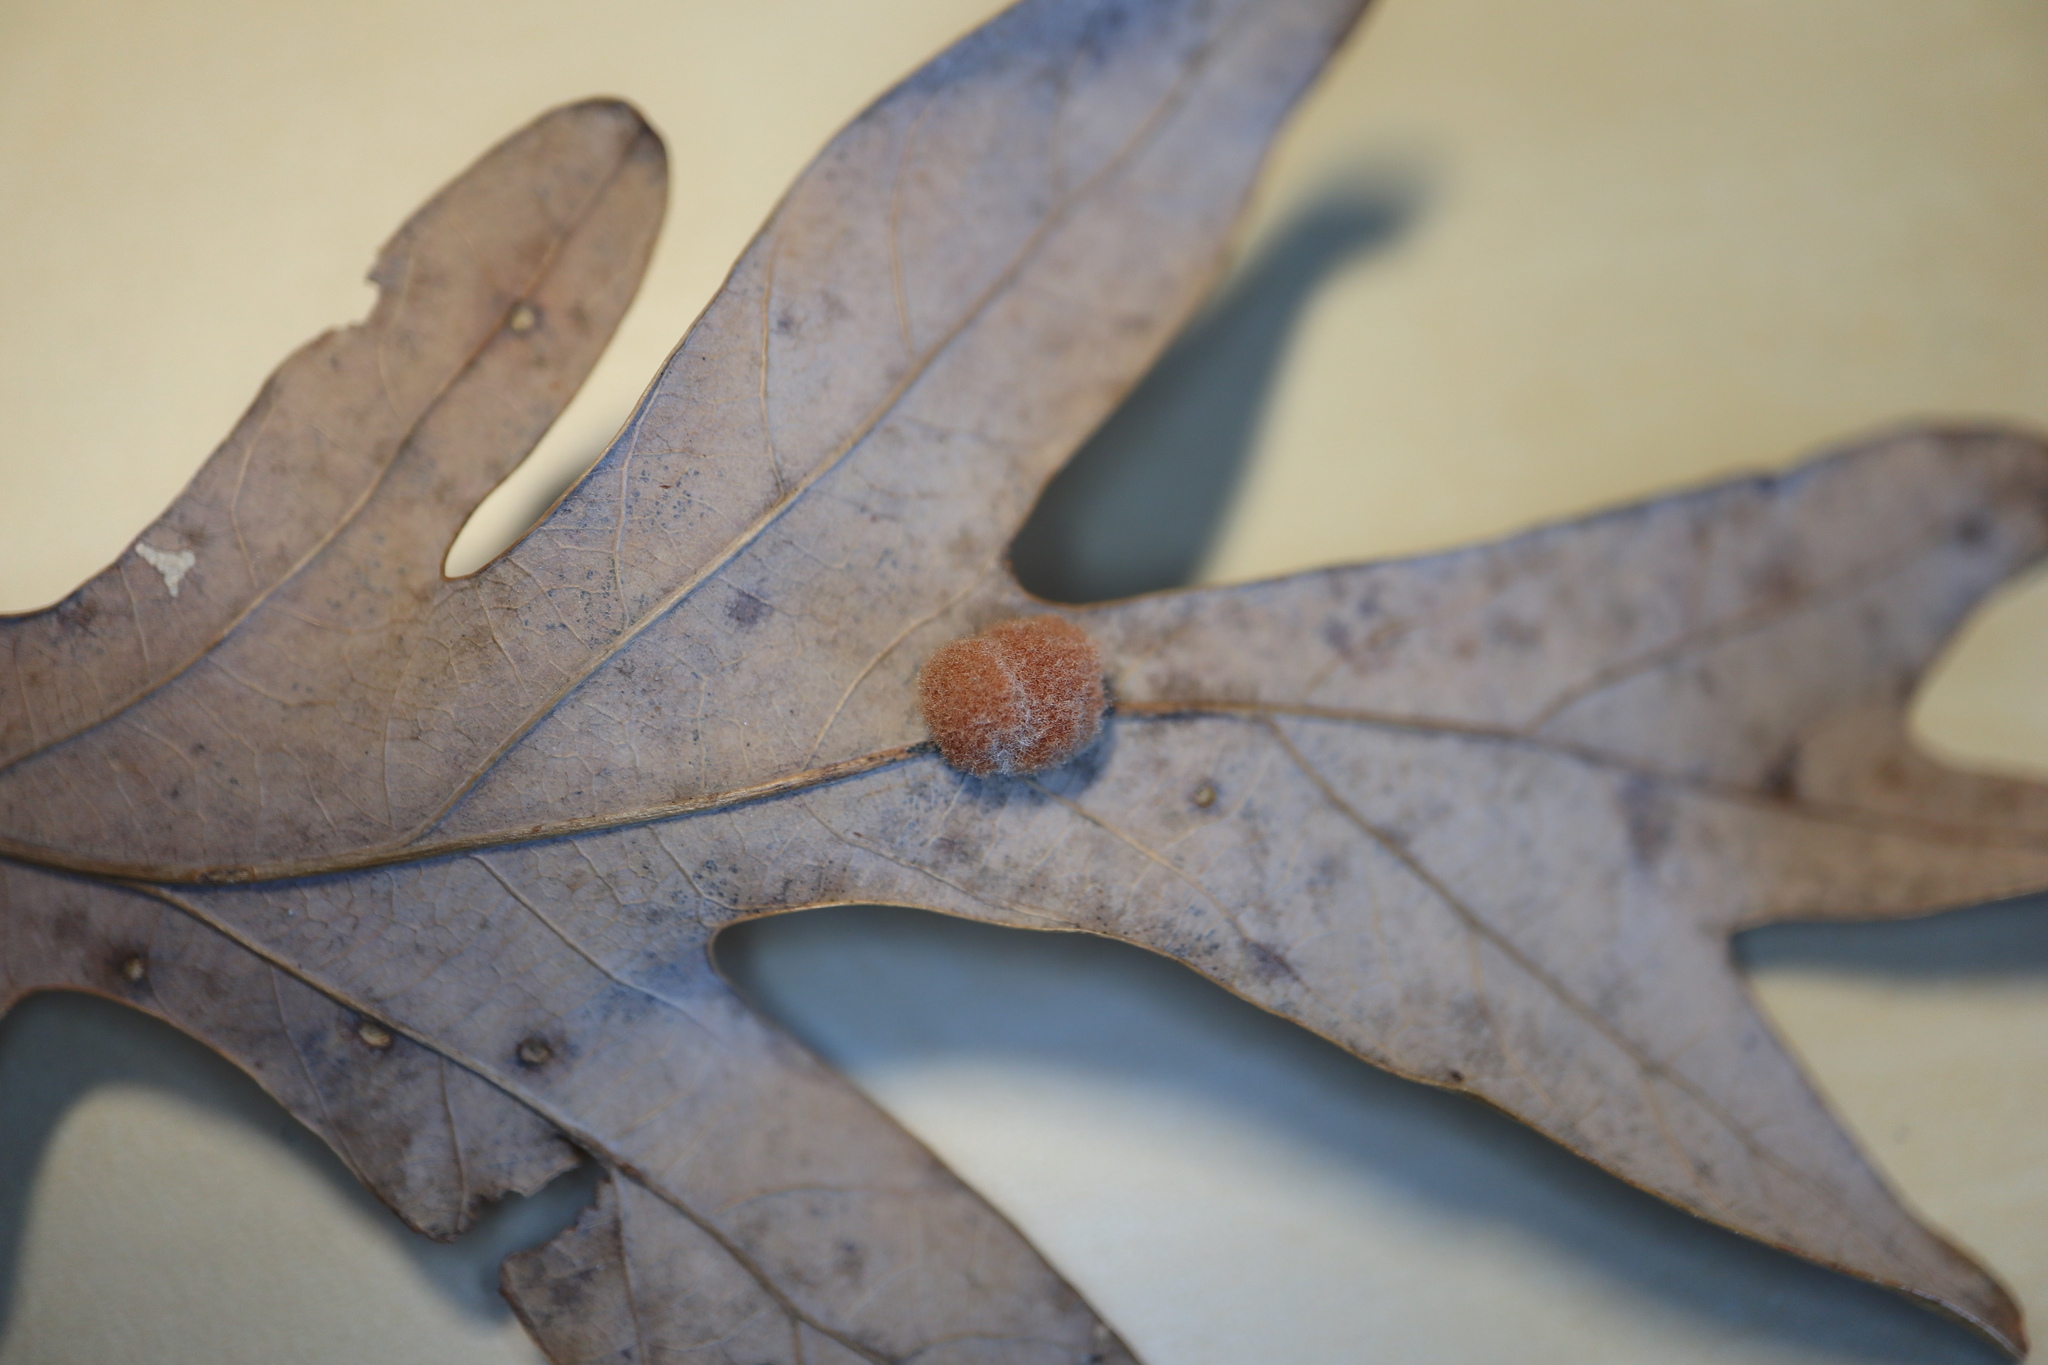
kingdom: Animalia
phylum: Arthropoda
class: Insecta
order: Hymenoptera
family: Cynipidae
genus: Andricus
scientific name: Andricus quercusflocci
